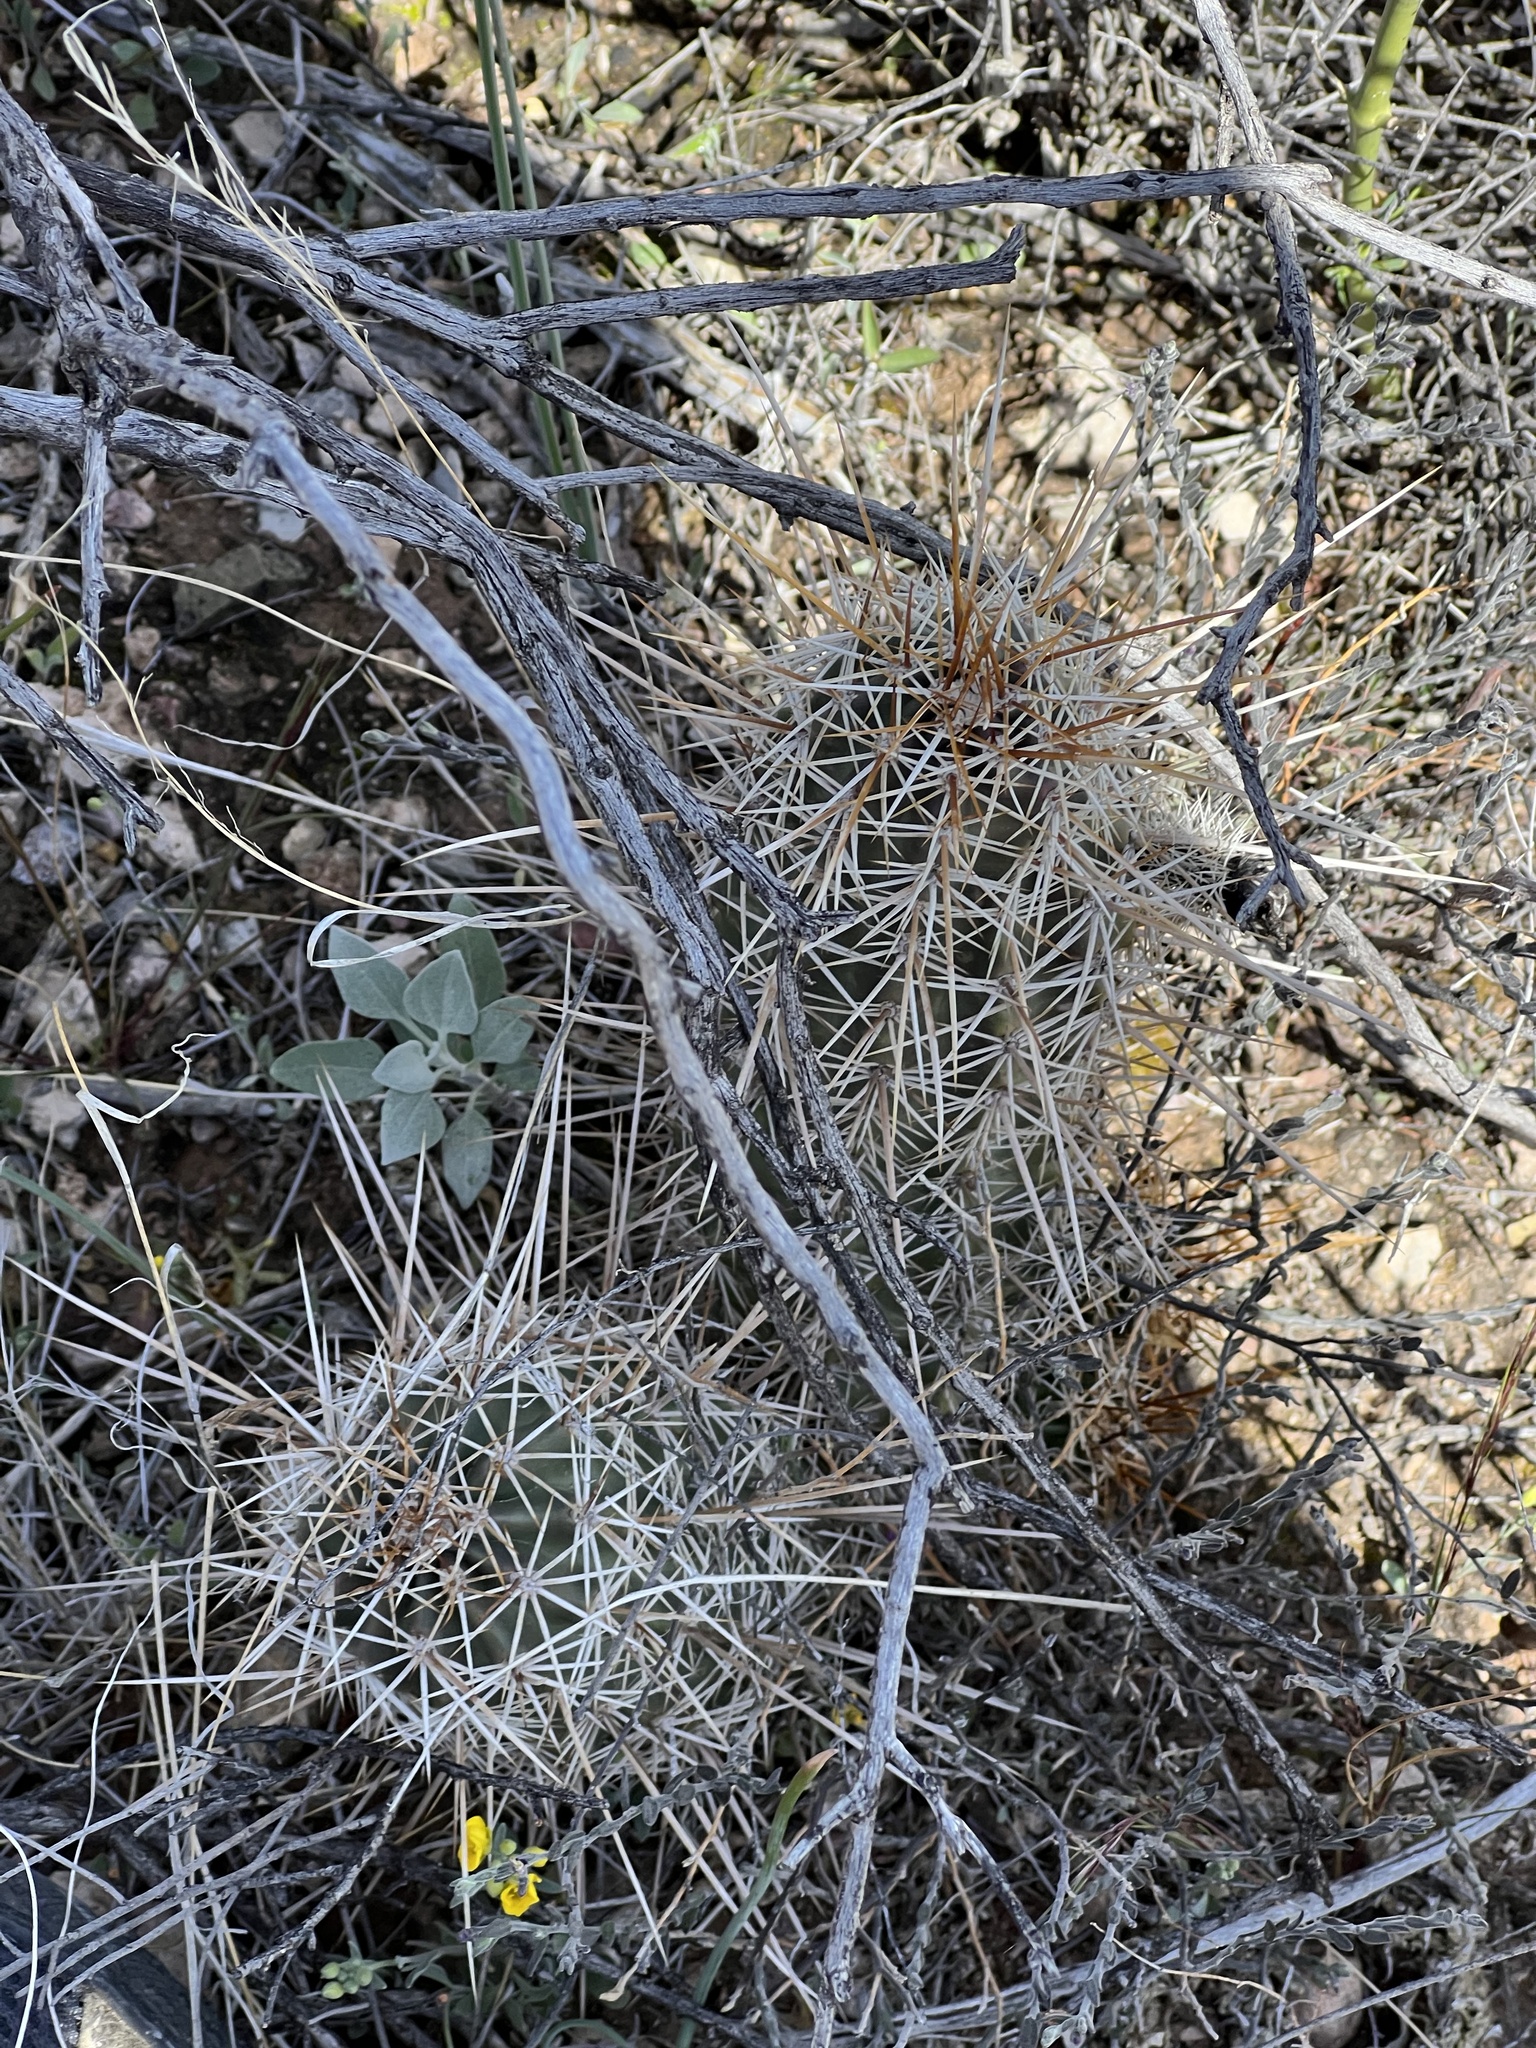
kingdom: Plantae
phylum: Tracheophyta
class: Magnoliopsida
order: Caryophyllales
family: Cactaceae
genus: Echinocereus
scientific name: Echinocereus fasciculatus
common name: Bundle hedgehog
